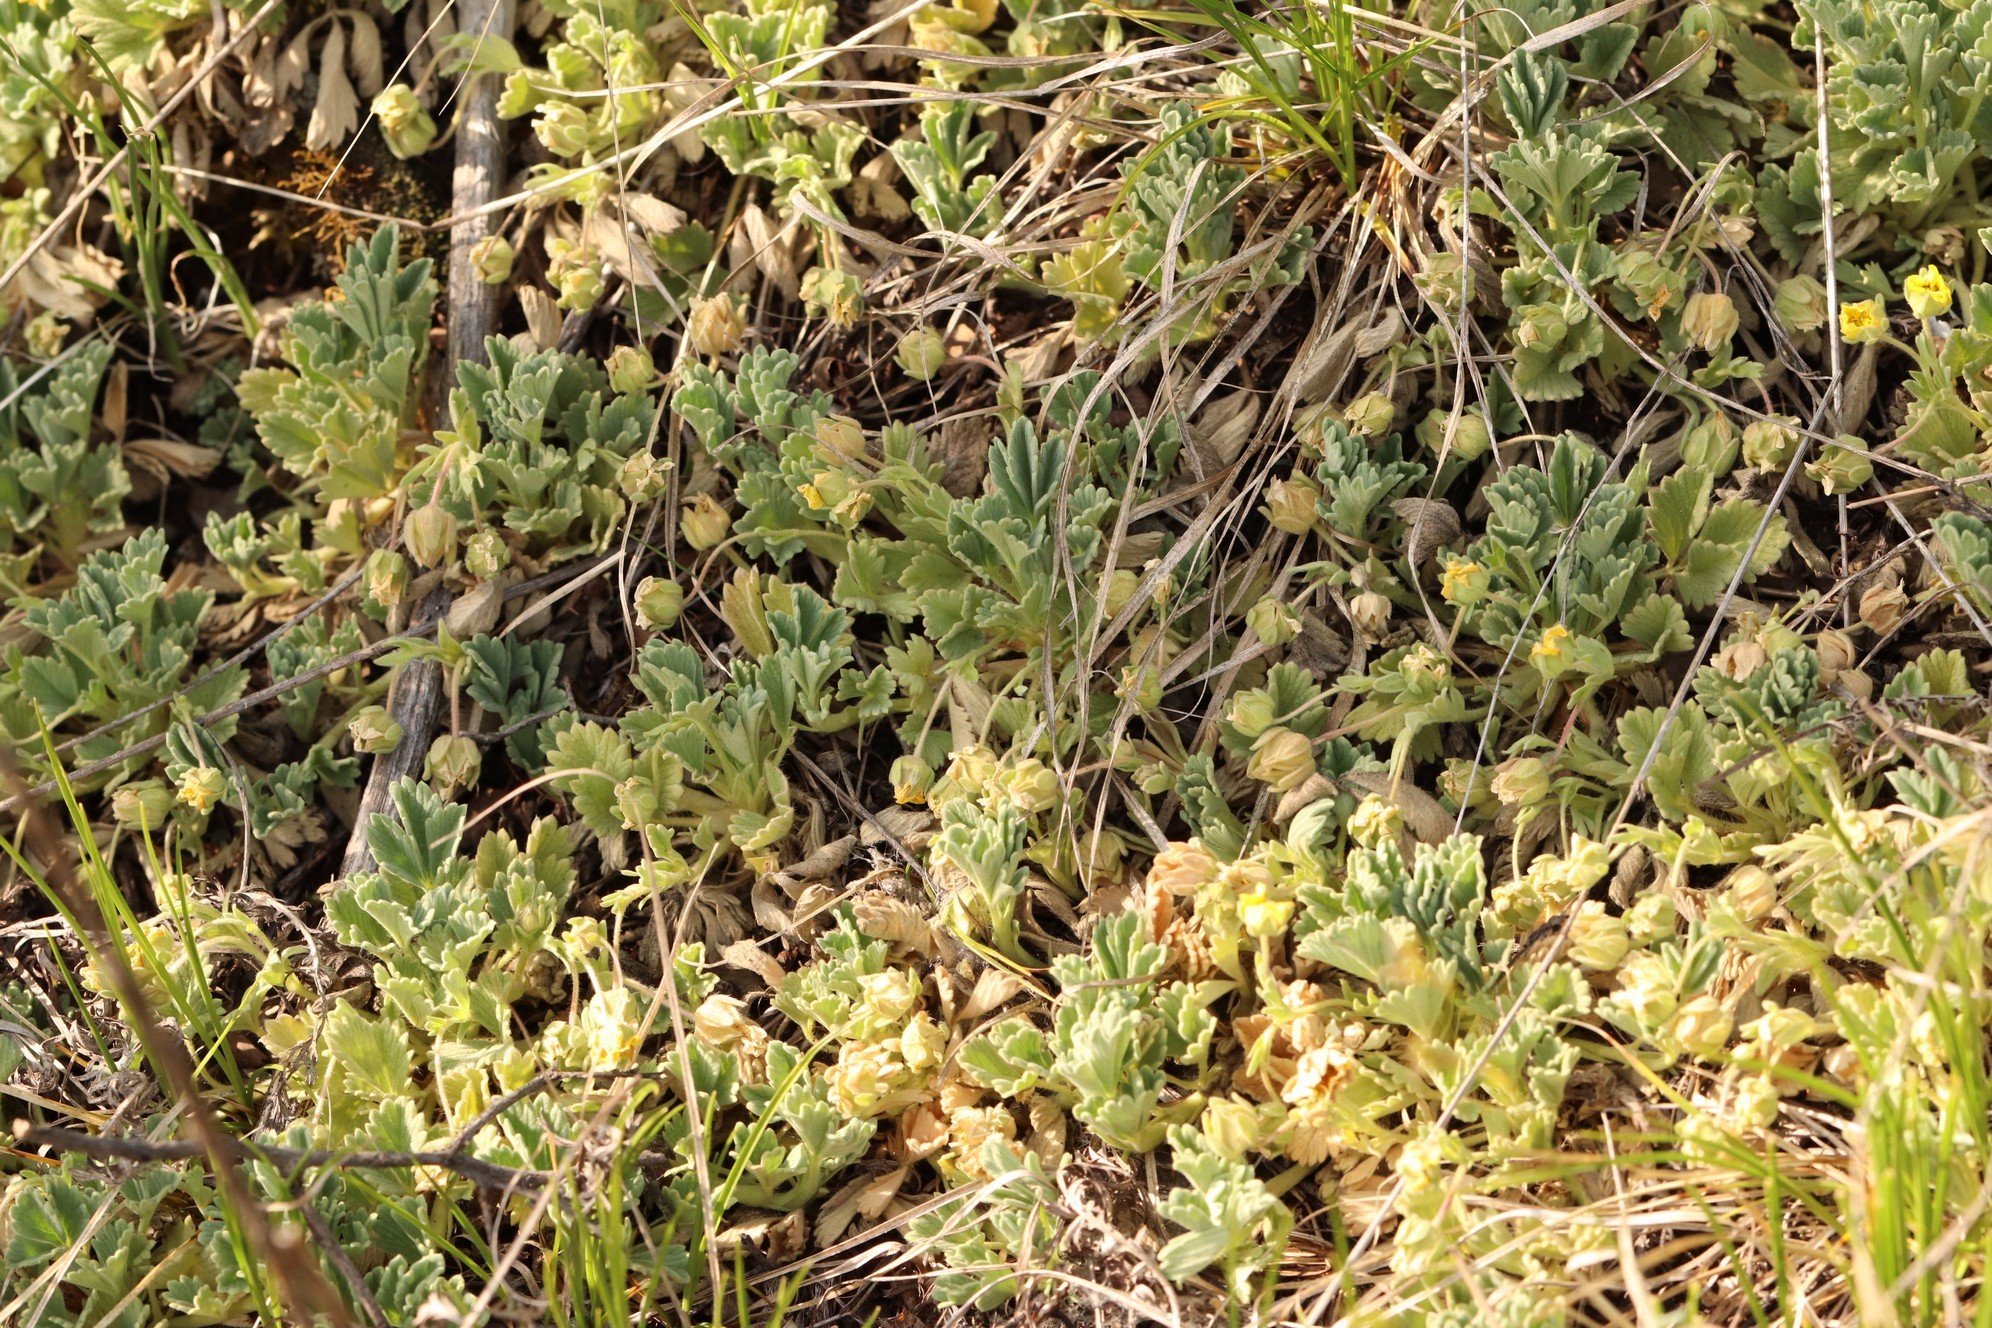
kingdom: Plantae
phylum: Tracheophyta
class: Magnoliopsida
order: Rosales
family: Rosaceae
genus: Potentilla
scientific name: Potentilla acaulis
